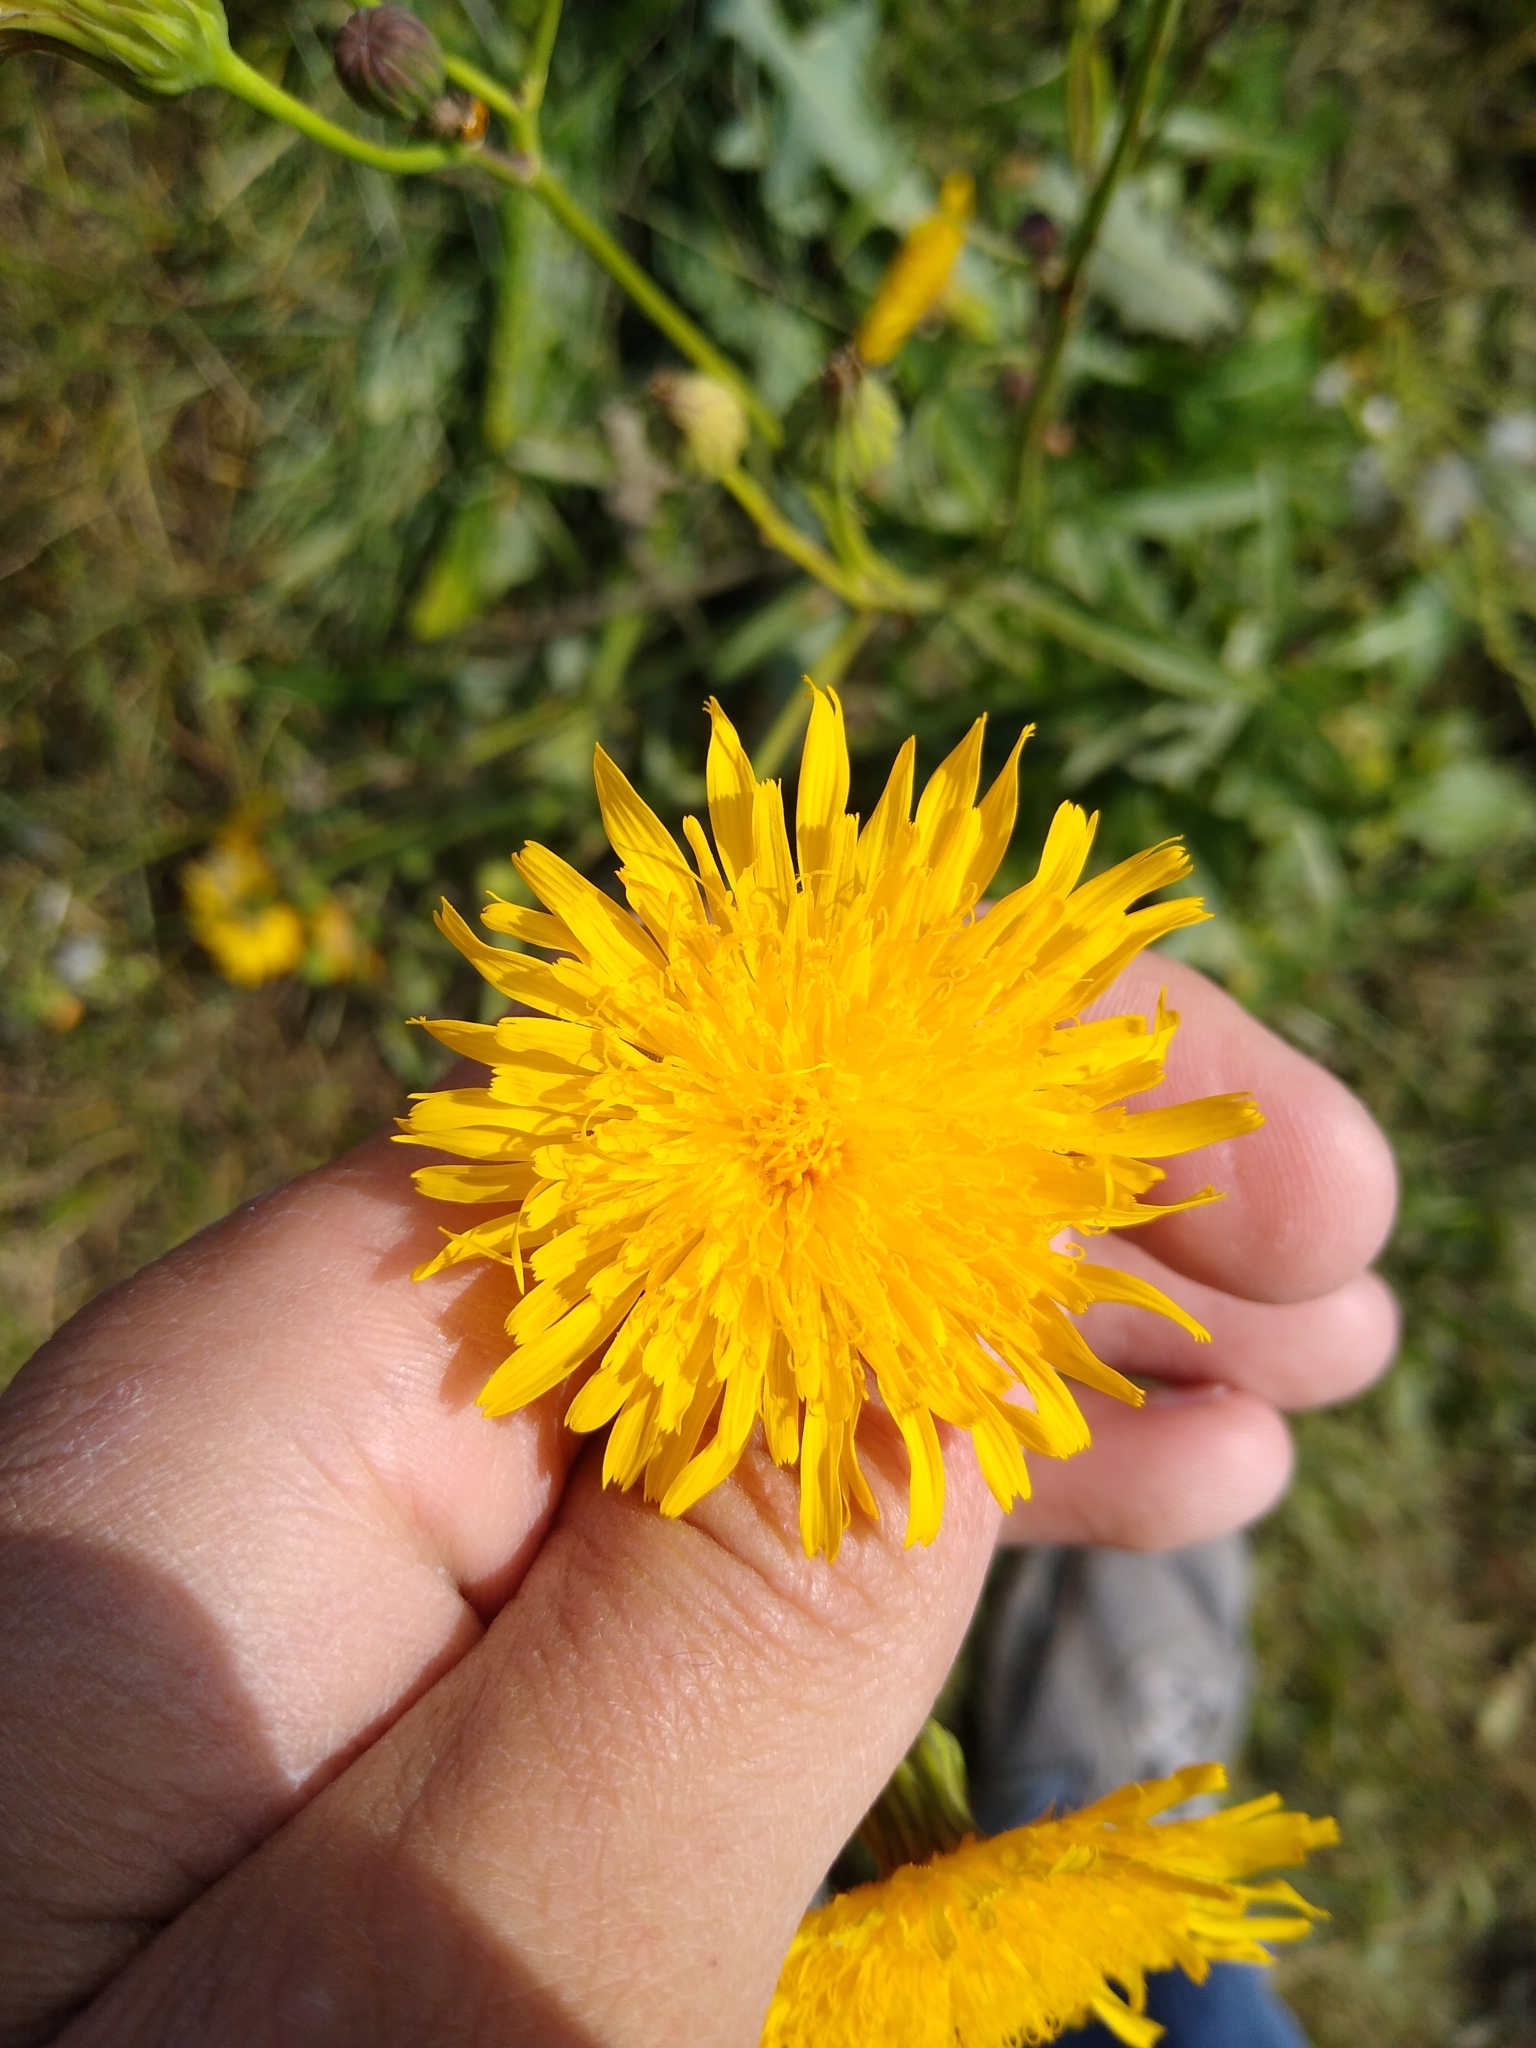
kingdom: Plantae
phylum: Tracheophyta
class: Magnoliopsida
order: Asterales
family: Asteraceae
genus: Sonchus
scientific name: Sonchus arvensis
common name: Perennial sow-thistle
